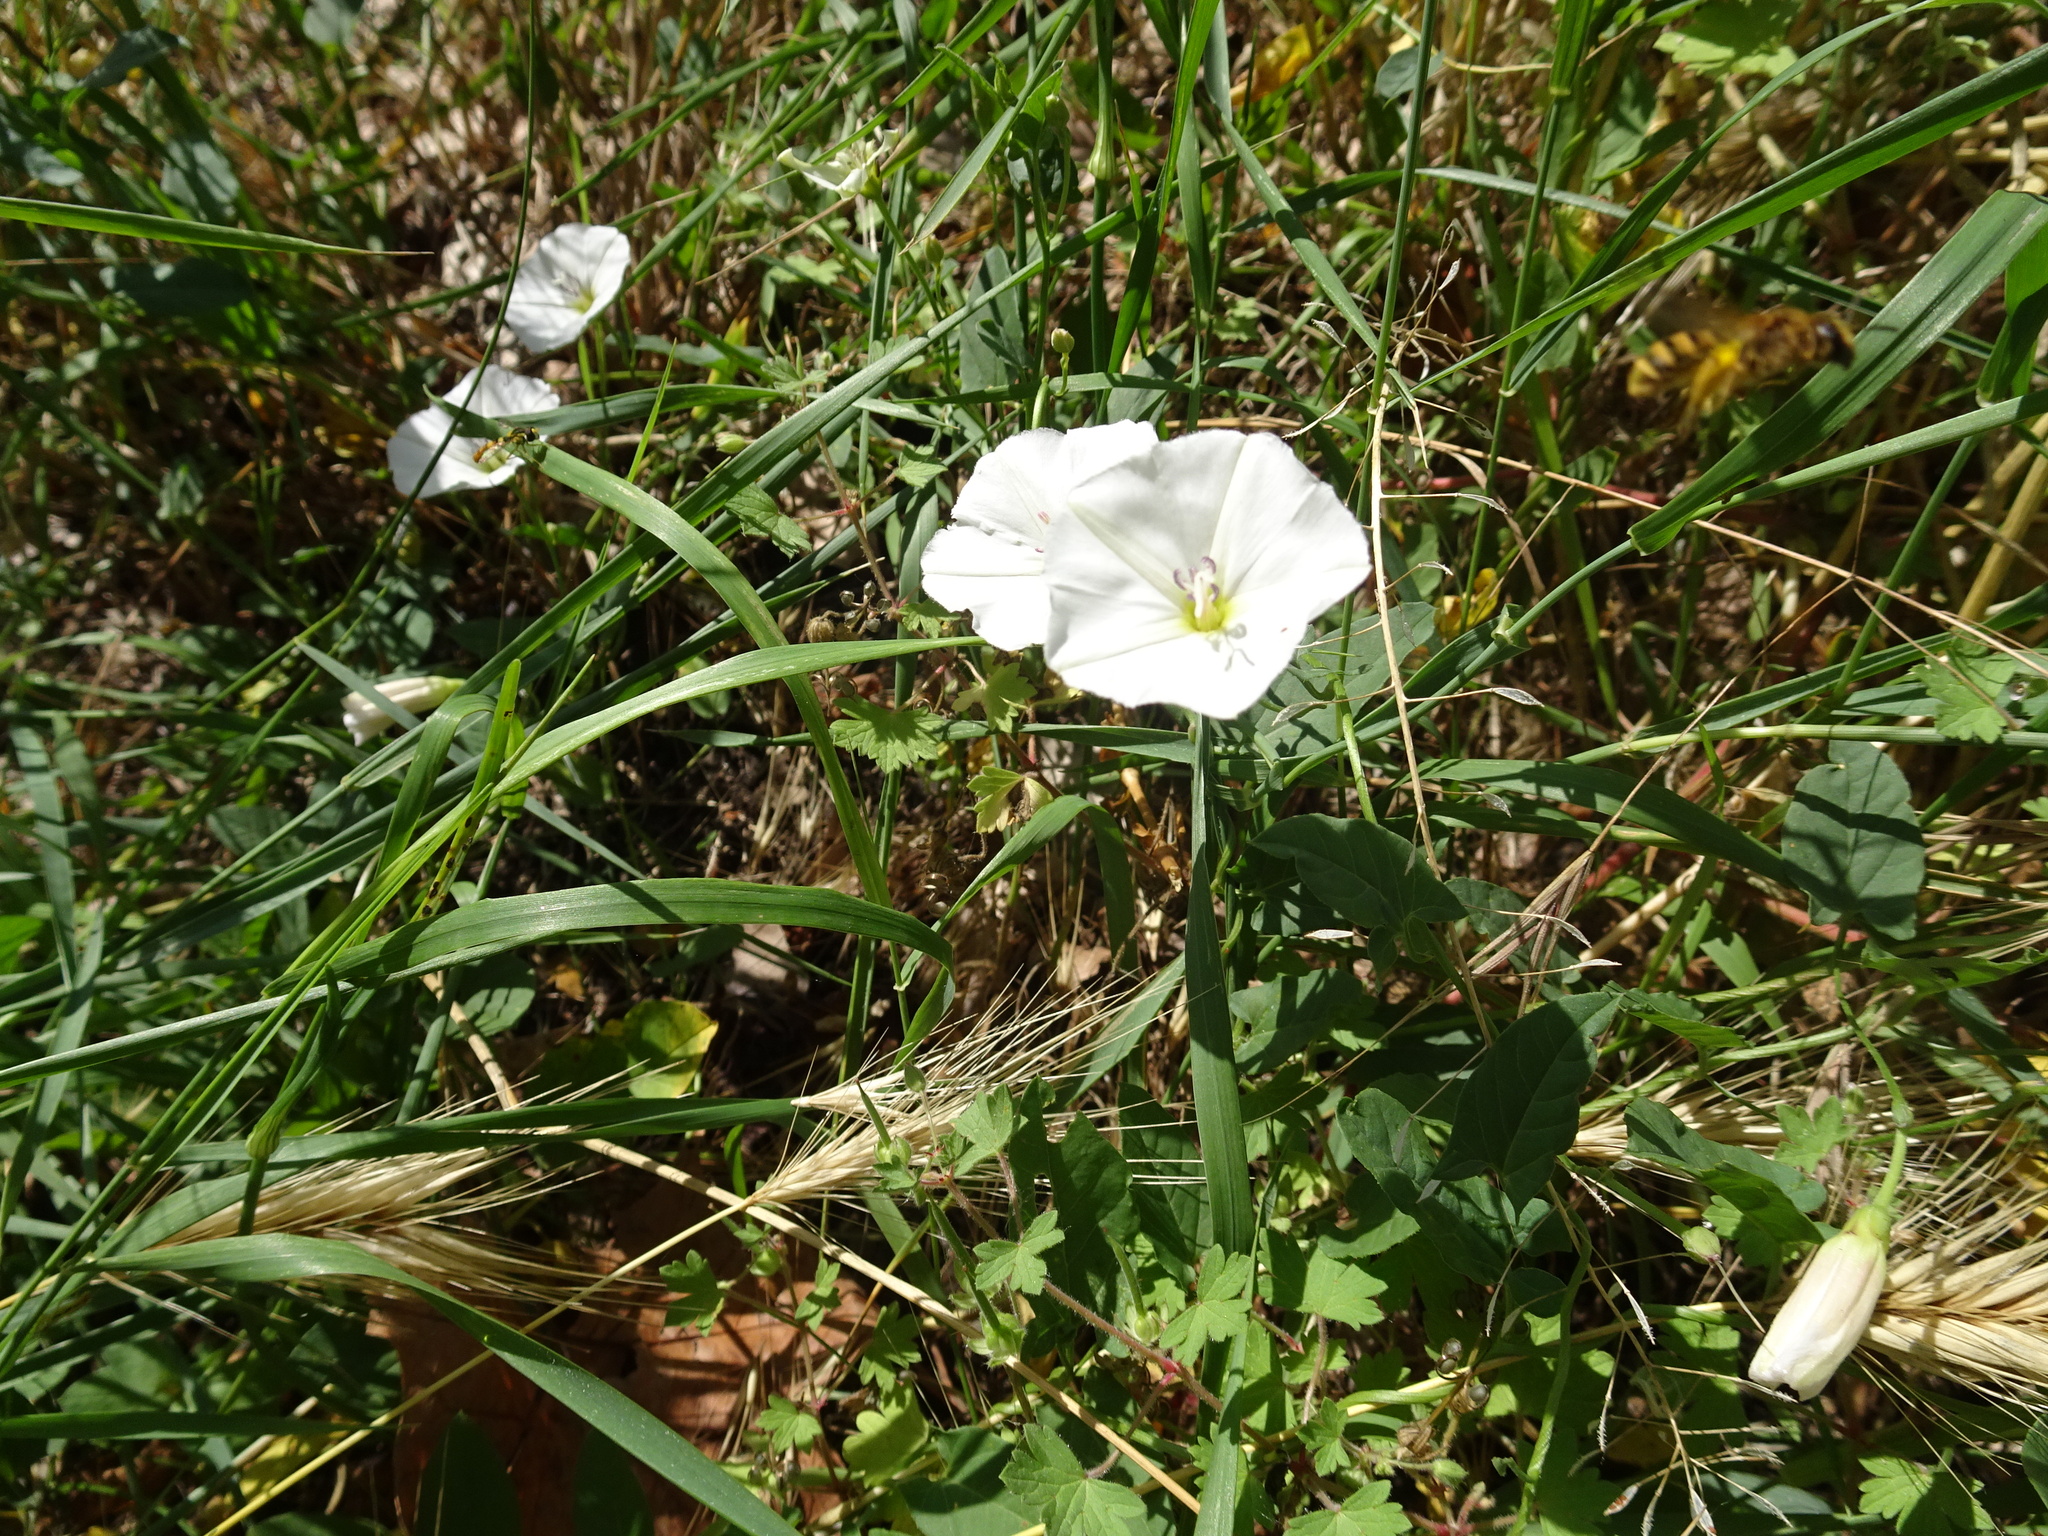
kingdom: Plantae
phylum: Tracheophyta
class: Magnoliopsida
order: Solanales
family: Convolvulaceae
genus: Convolvulus
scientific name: Convolvulus arvensis
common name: Field bindweed
